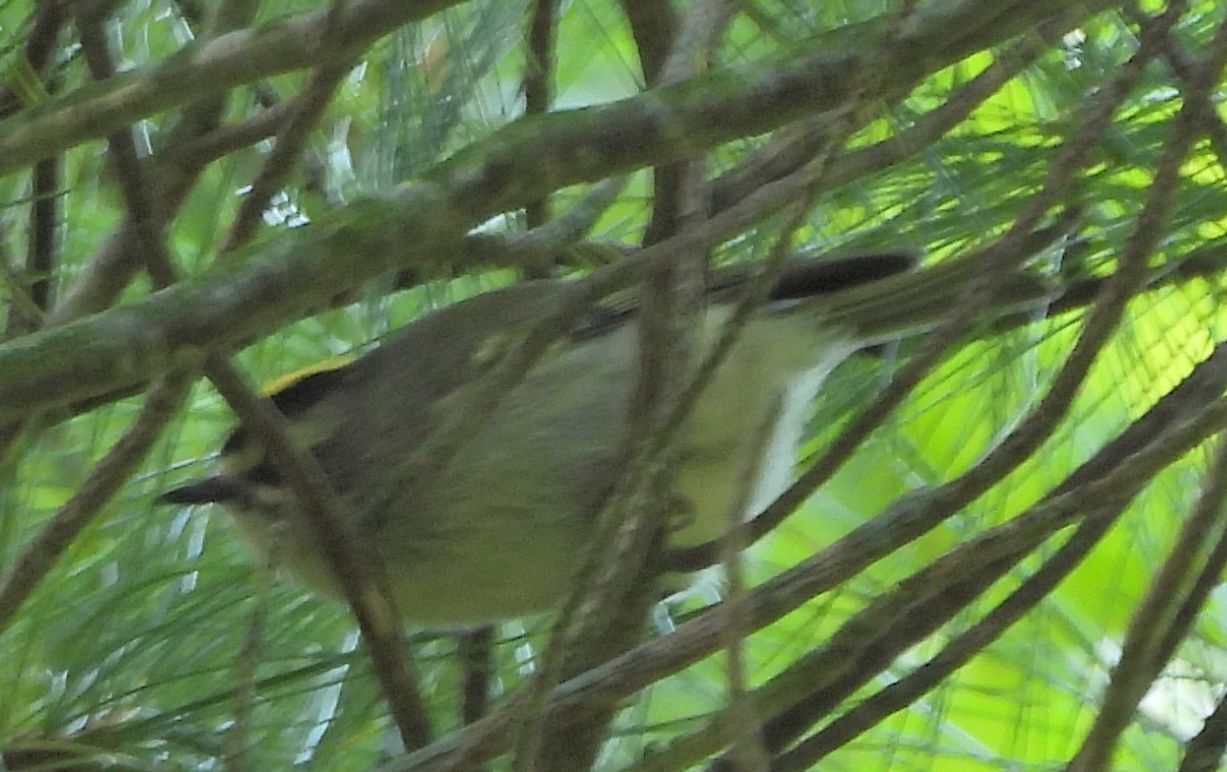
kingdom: Animalia
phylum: Chordata
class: Aves
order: Passeriformes
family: Regulidae
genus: Regulus
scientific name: Regulus satrapa
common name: Golden-crowned kinglet
